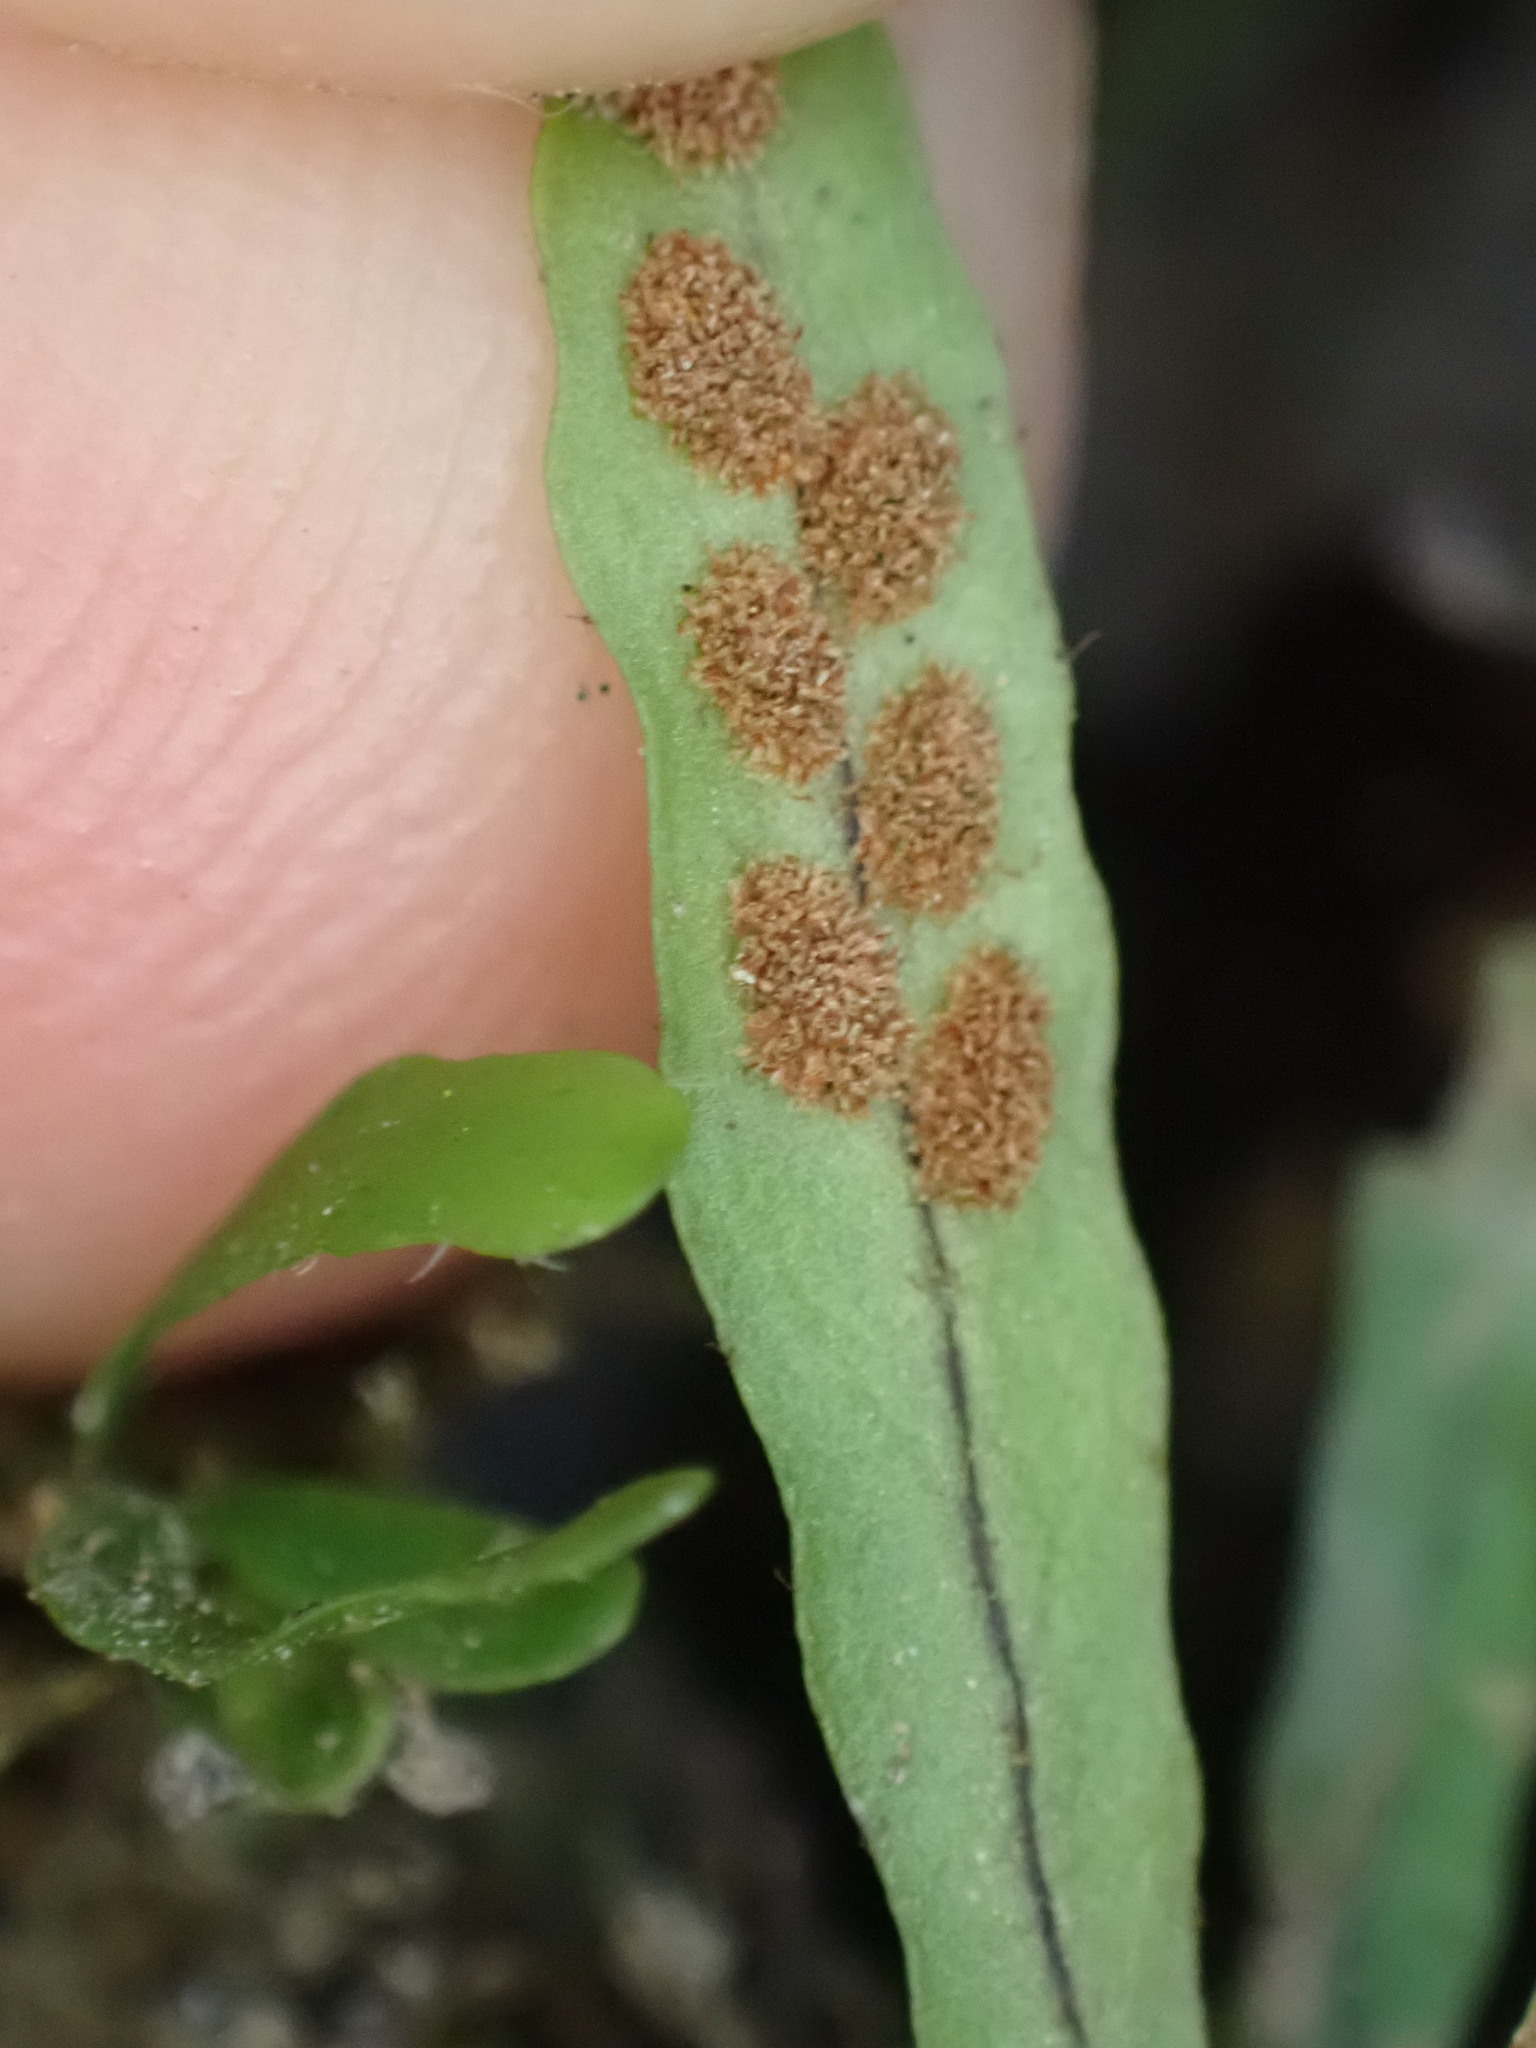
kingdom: Plantae
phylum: Tracheophyta
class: Polypodiopsida
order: Polypodiales
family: Polypodiaceae
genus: Notogrammitis
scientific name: Notogrammitis ciliata
